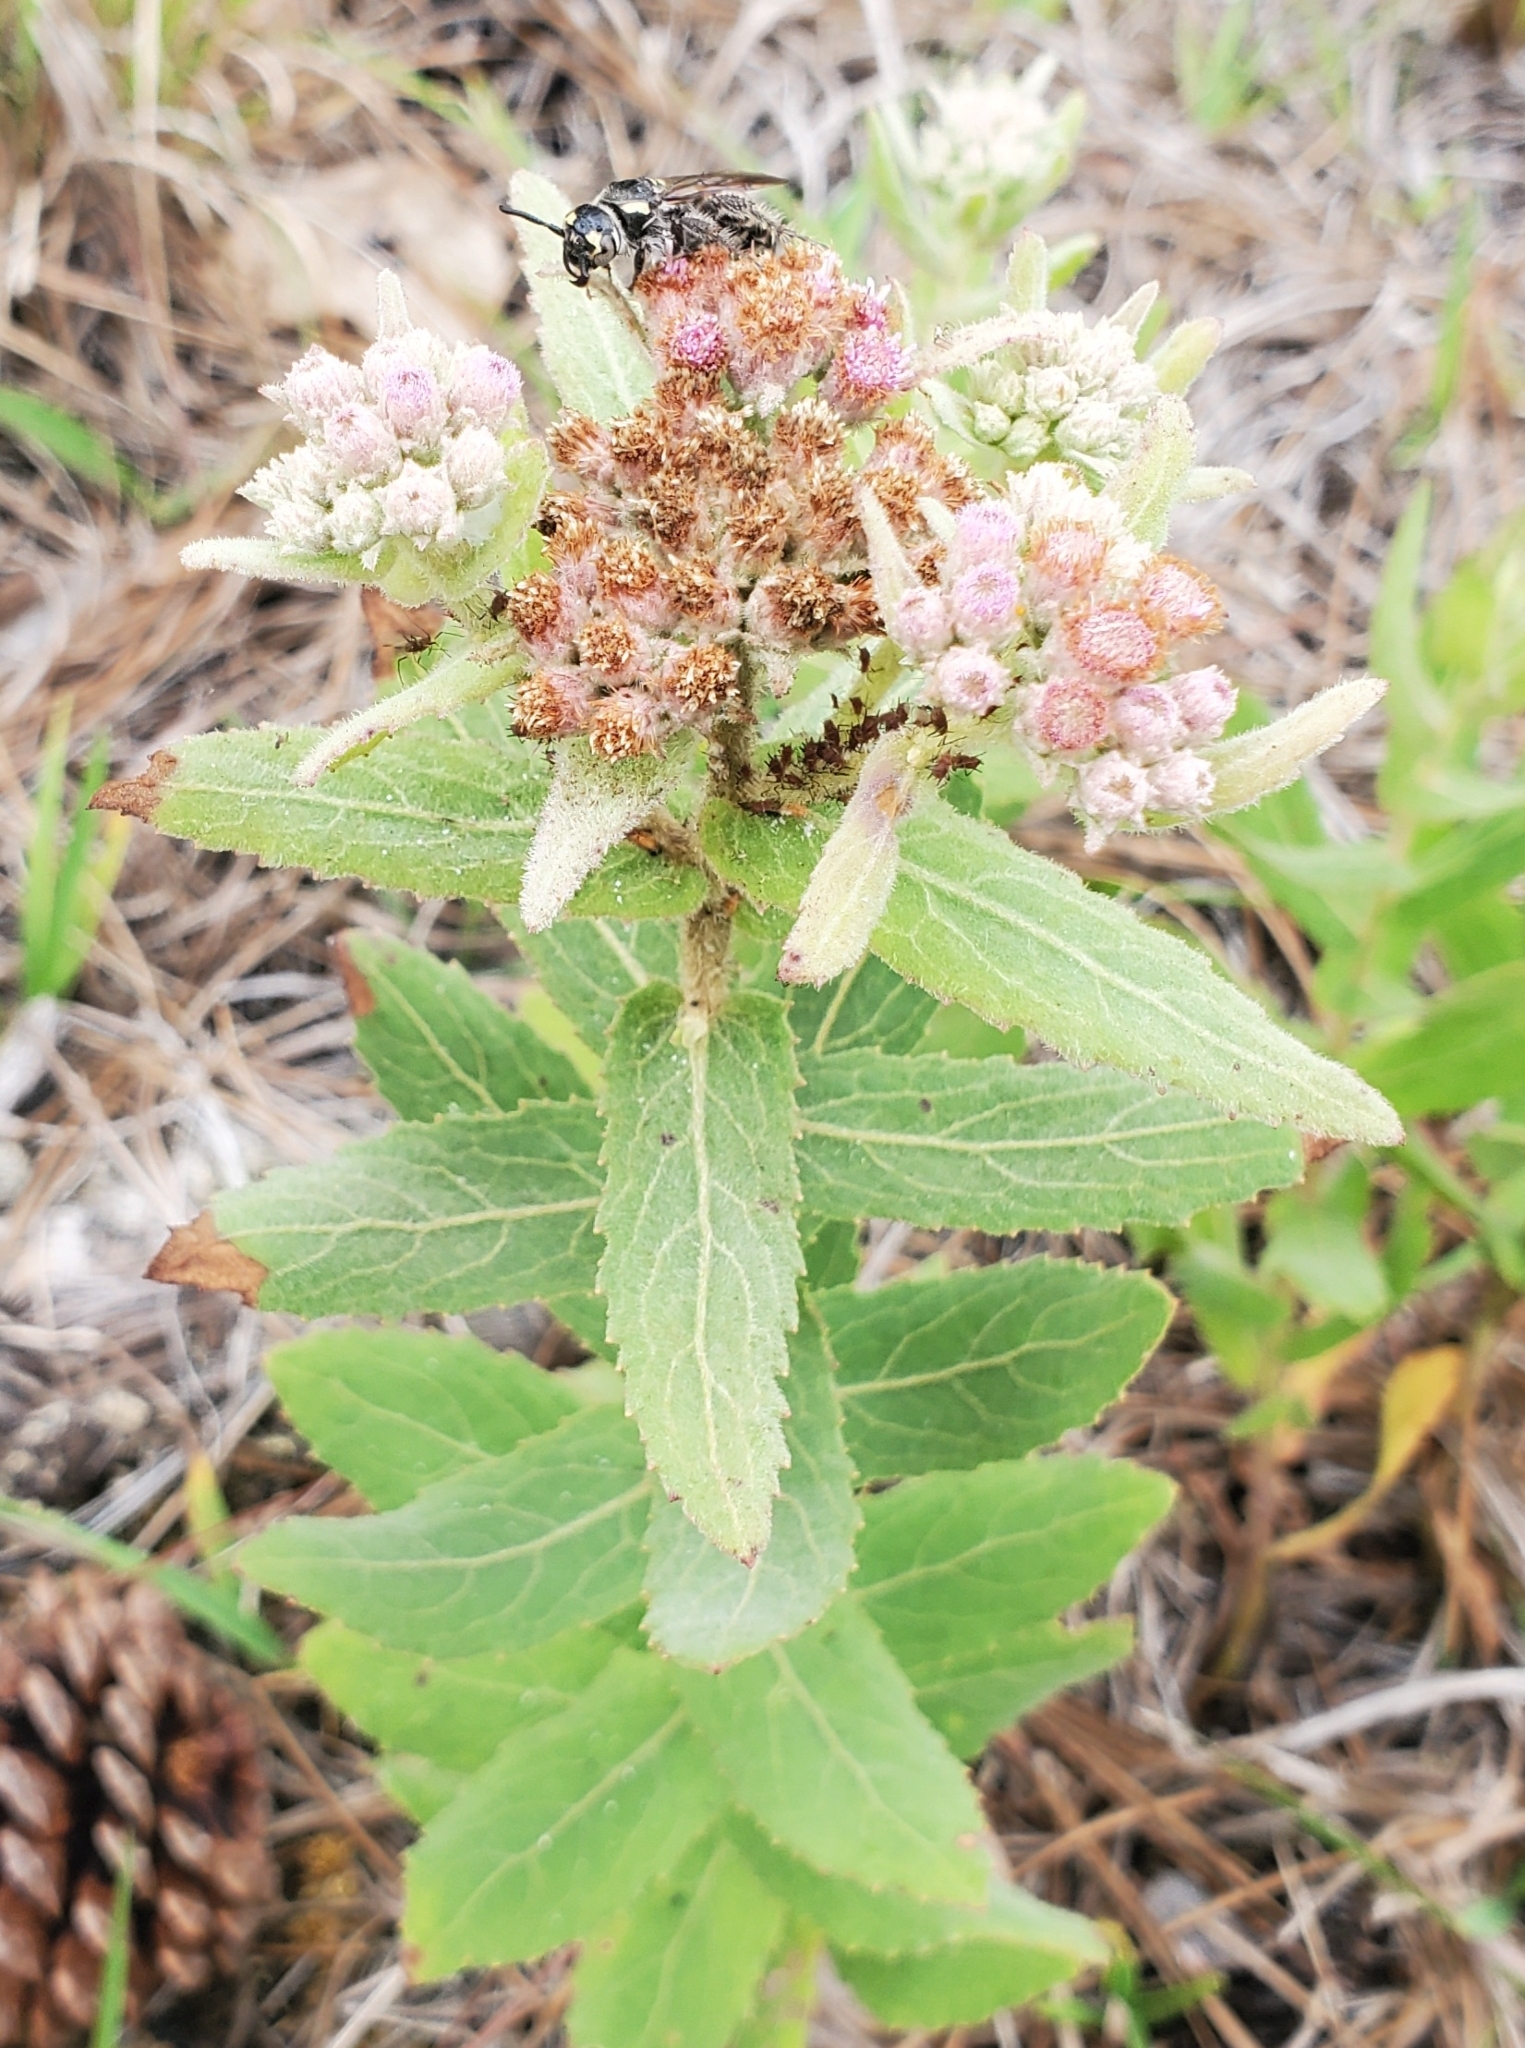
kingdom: Plantae
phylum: Tracheophyta
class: Magnoliopsida
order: Asterales
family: Asteraceae
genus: Pluchea
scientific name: Pluchea baccharis
